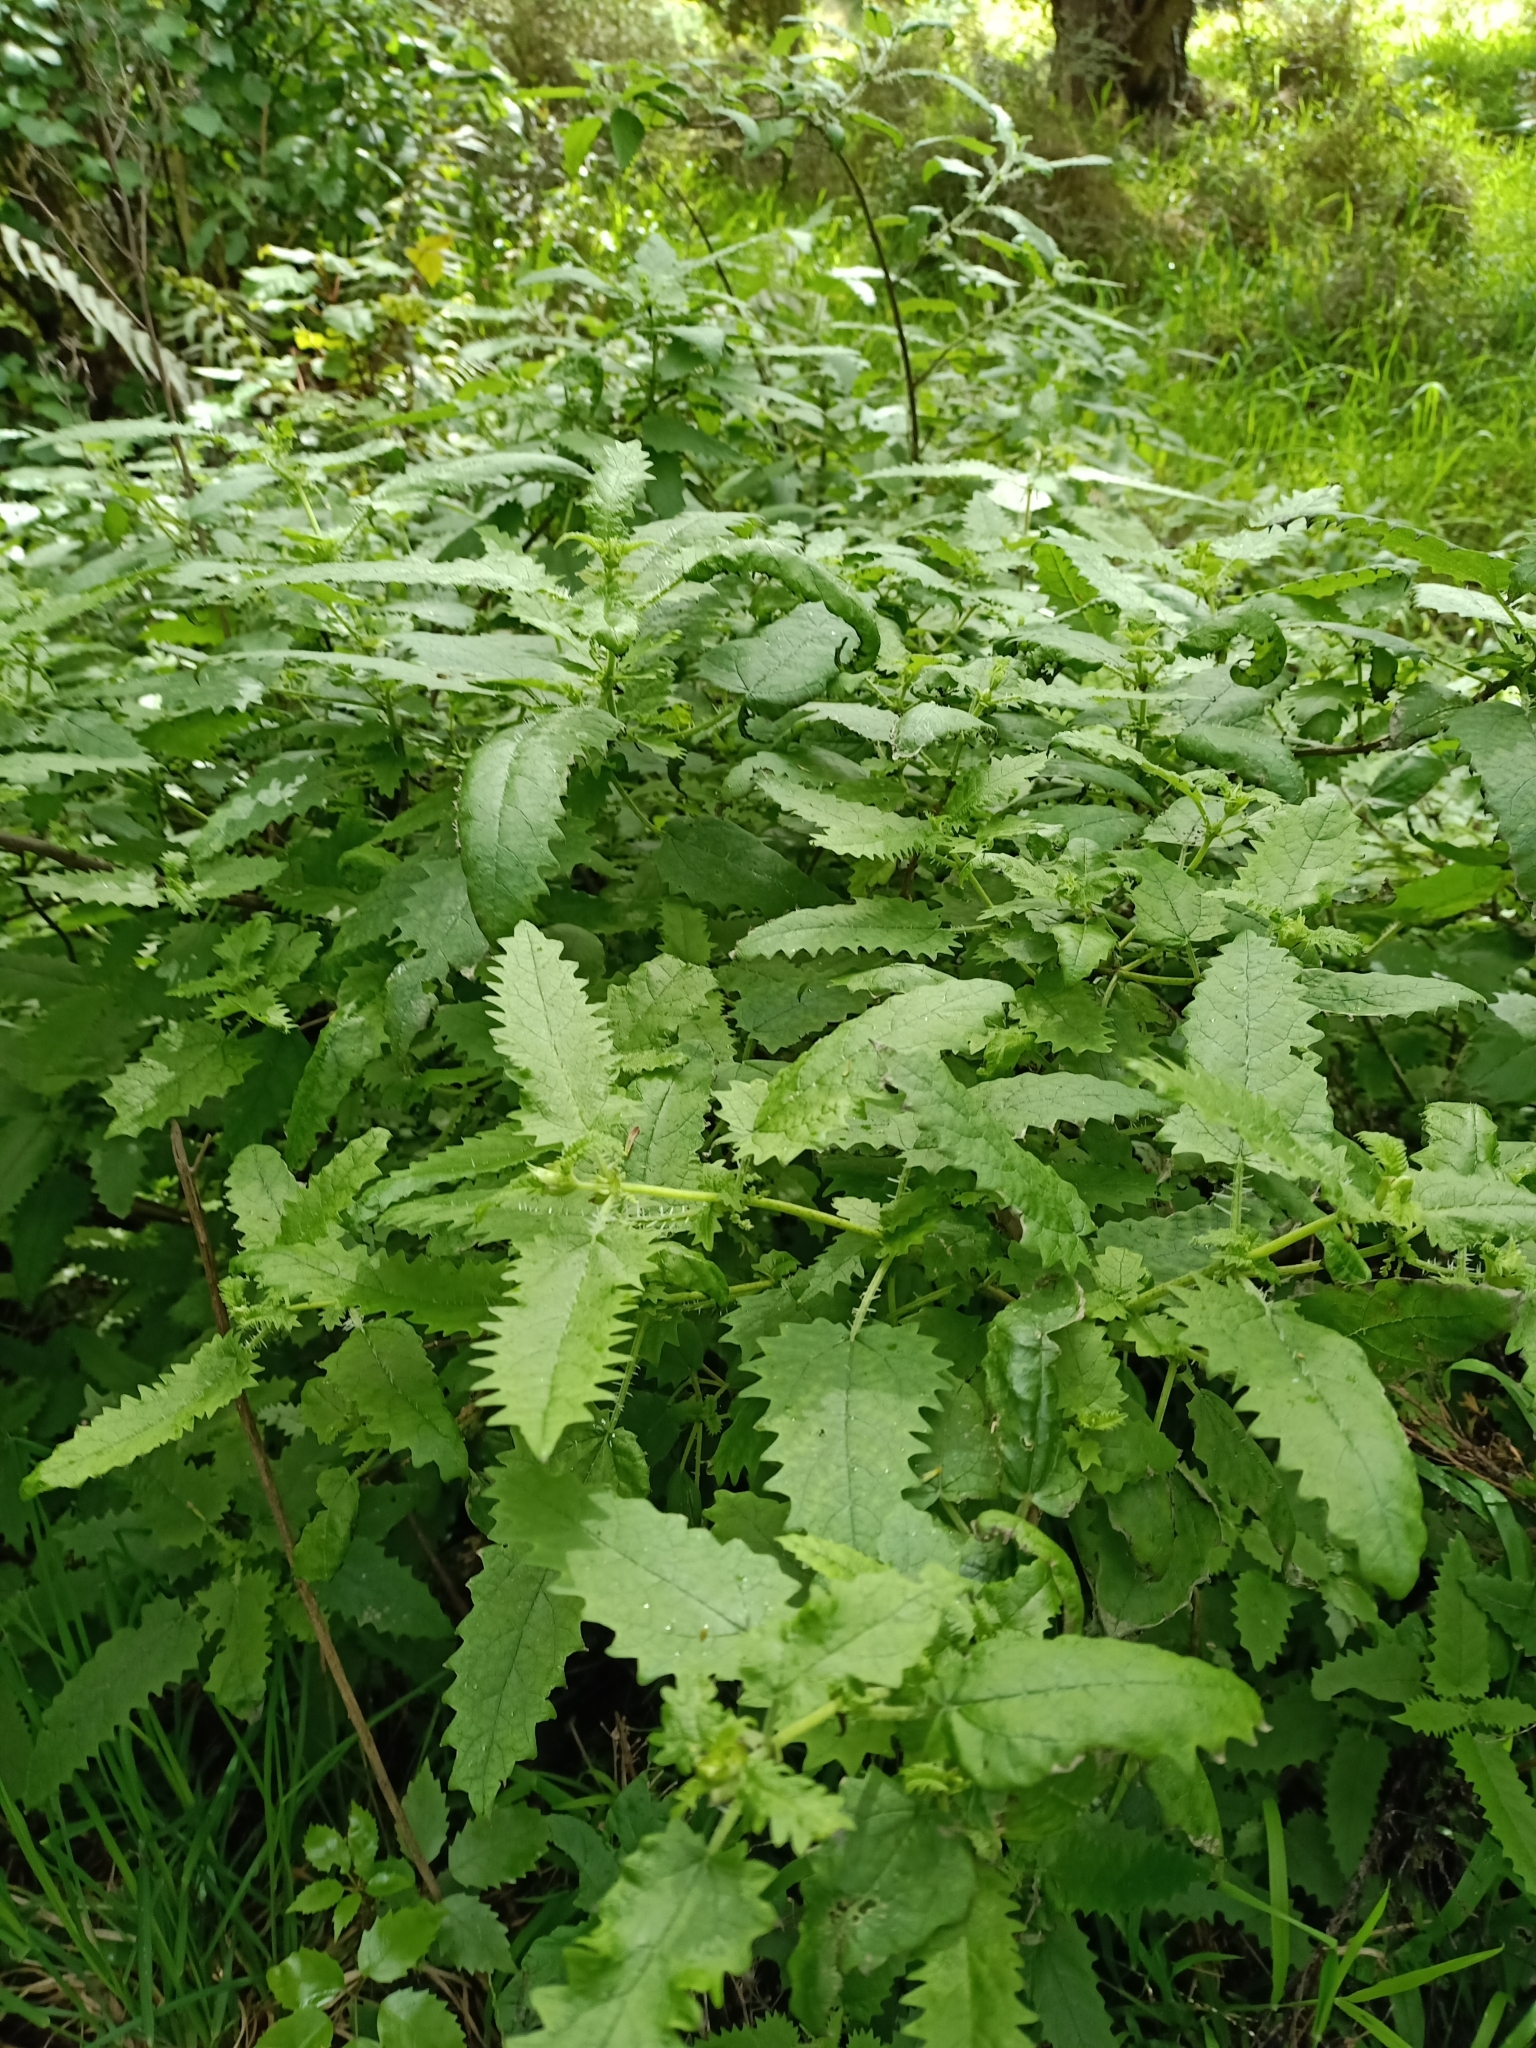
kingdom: Plantae
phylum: Tracheophyta
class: Magnoliopsida
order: Rosales
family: Urticaceae
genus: Urtica
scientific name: Urtica ferox
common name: Tree nettle
